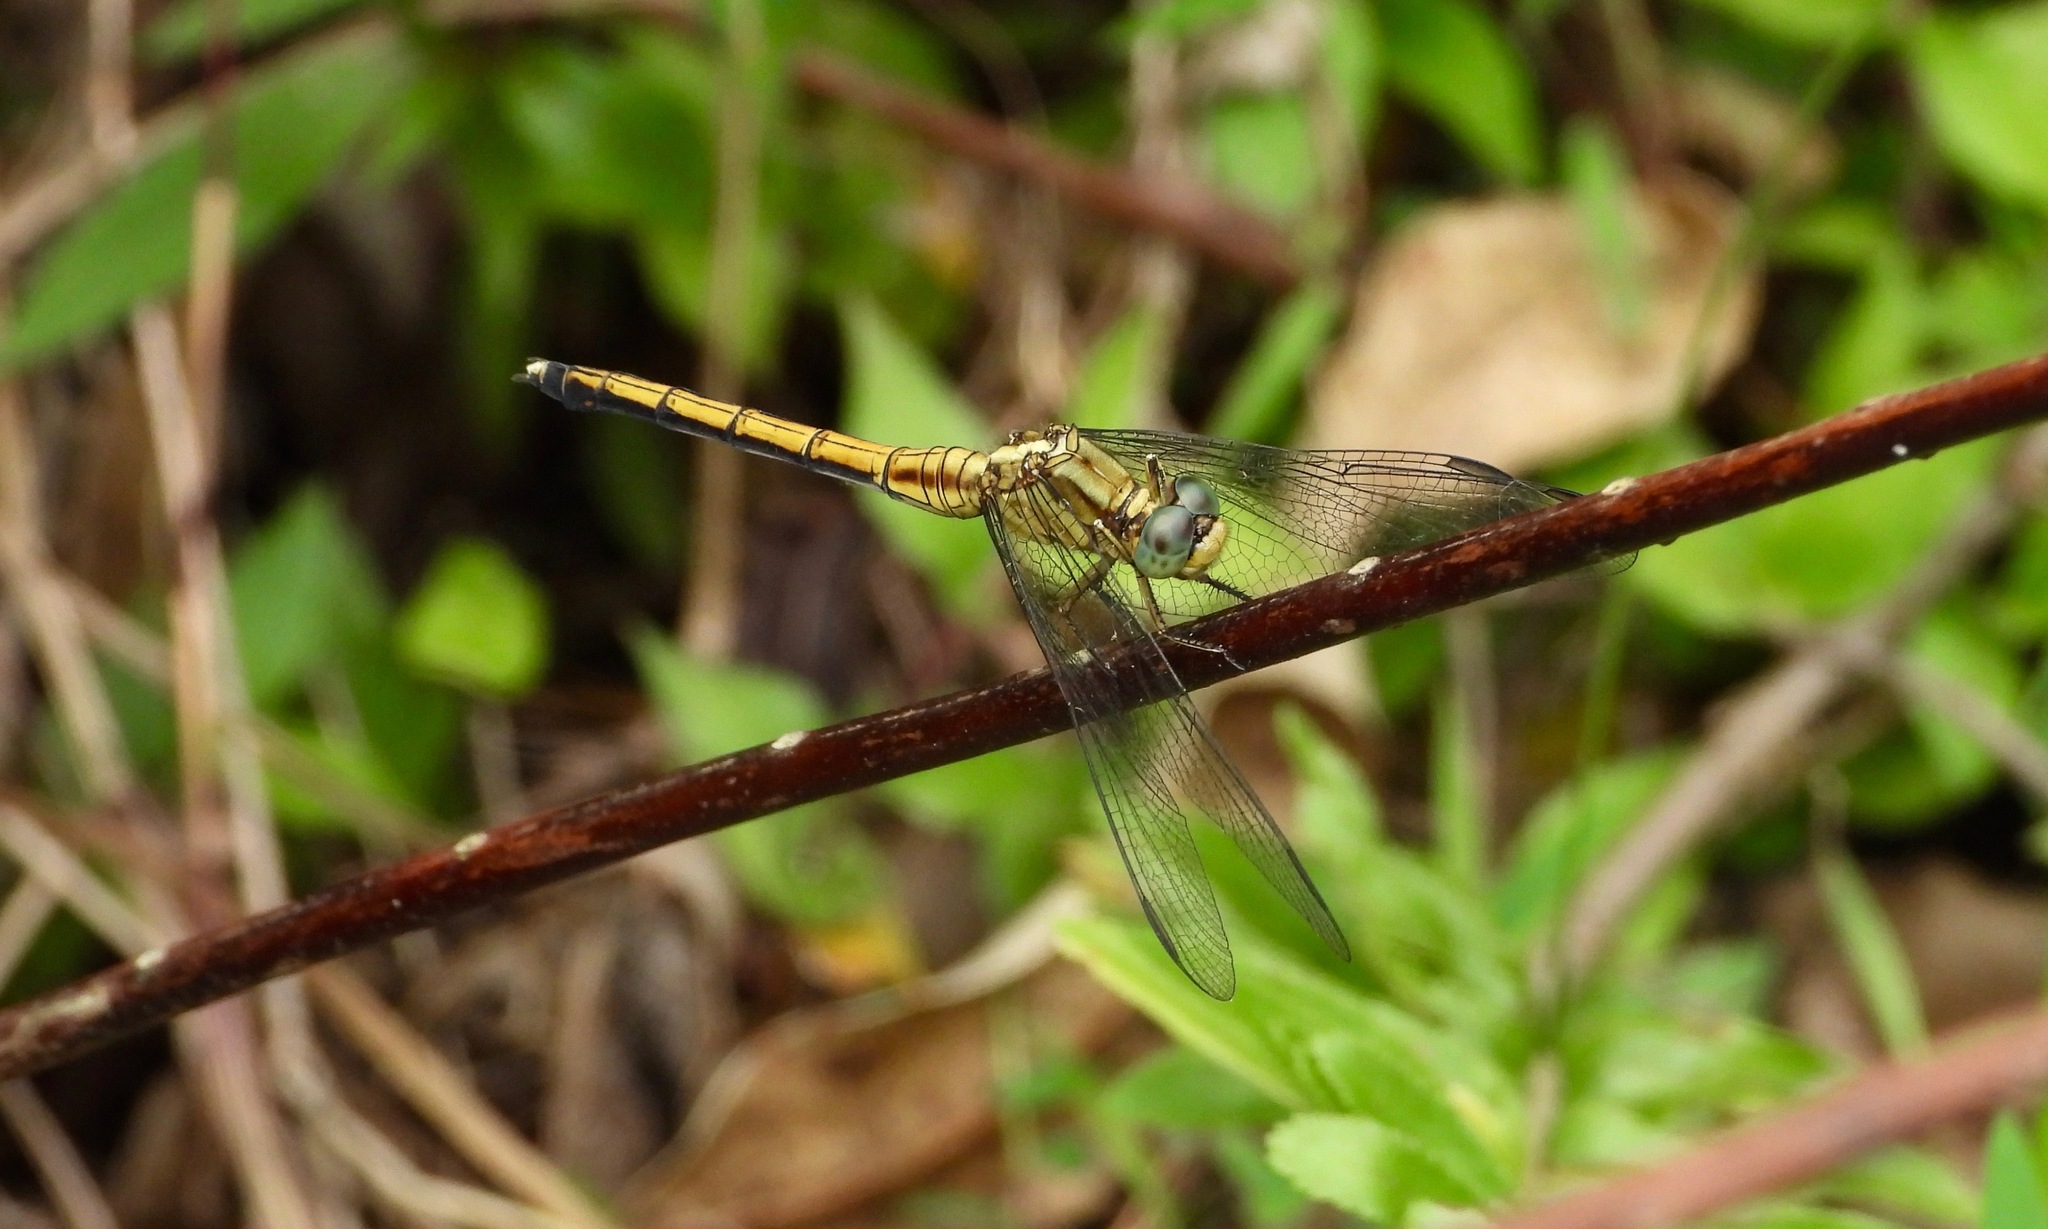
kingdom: Animalia
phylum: Arthropoda
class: Insecta
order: Odonata
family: Libellulidae
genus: Orthetrum
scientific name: Orthetrum luzonicum
